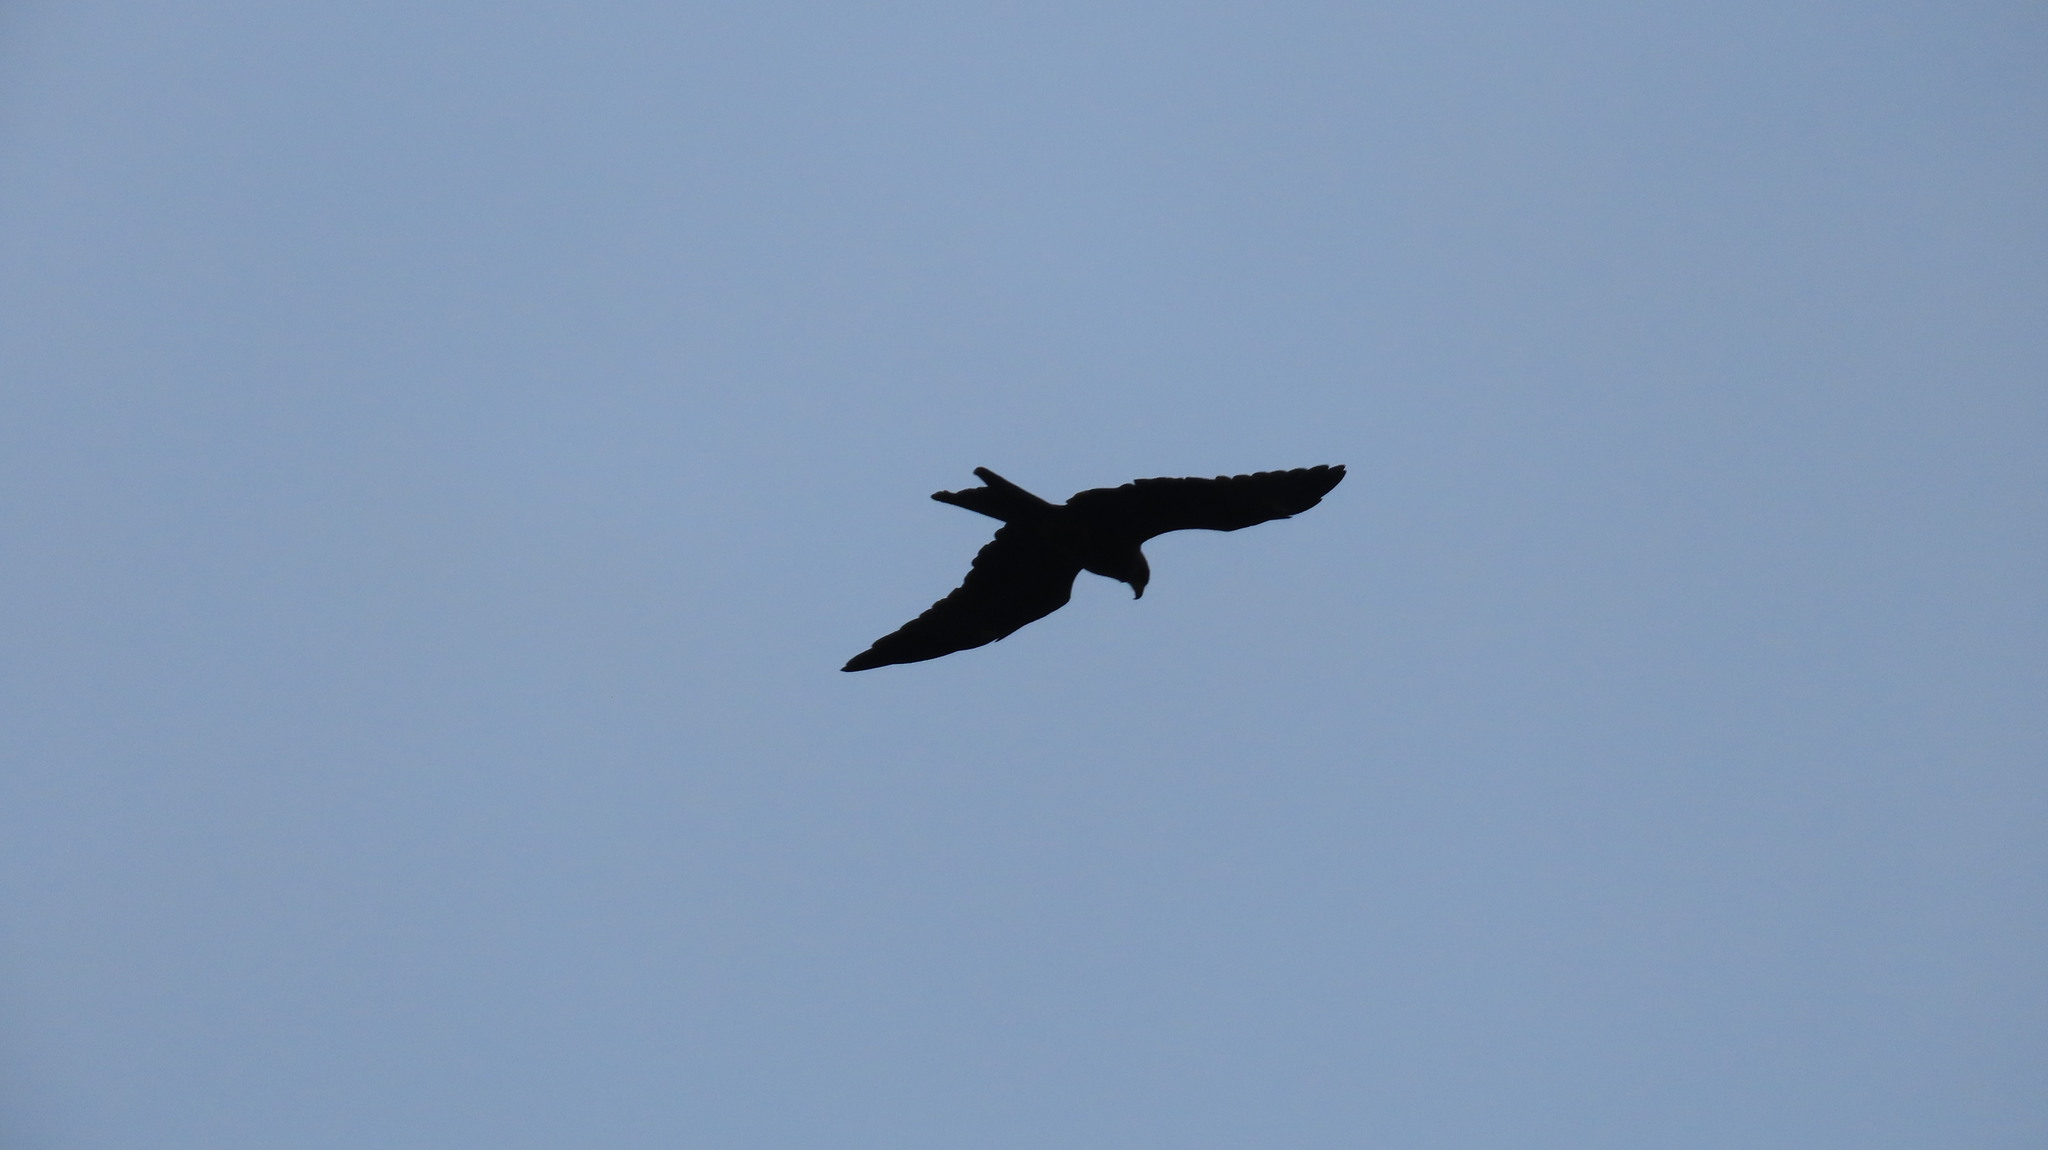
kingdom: Animalia
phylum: Chordata
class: Aves
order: Accipitriformes
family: Accipitridae
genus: Milvus
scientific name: Milvus migrans
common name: Black kite
